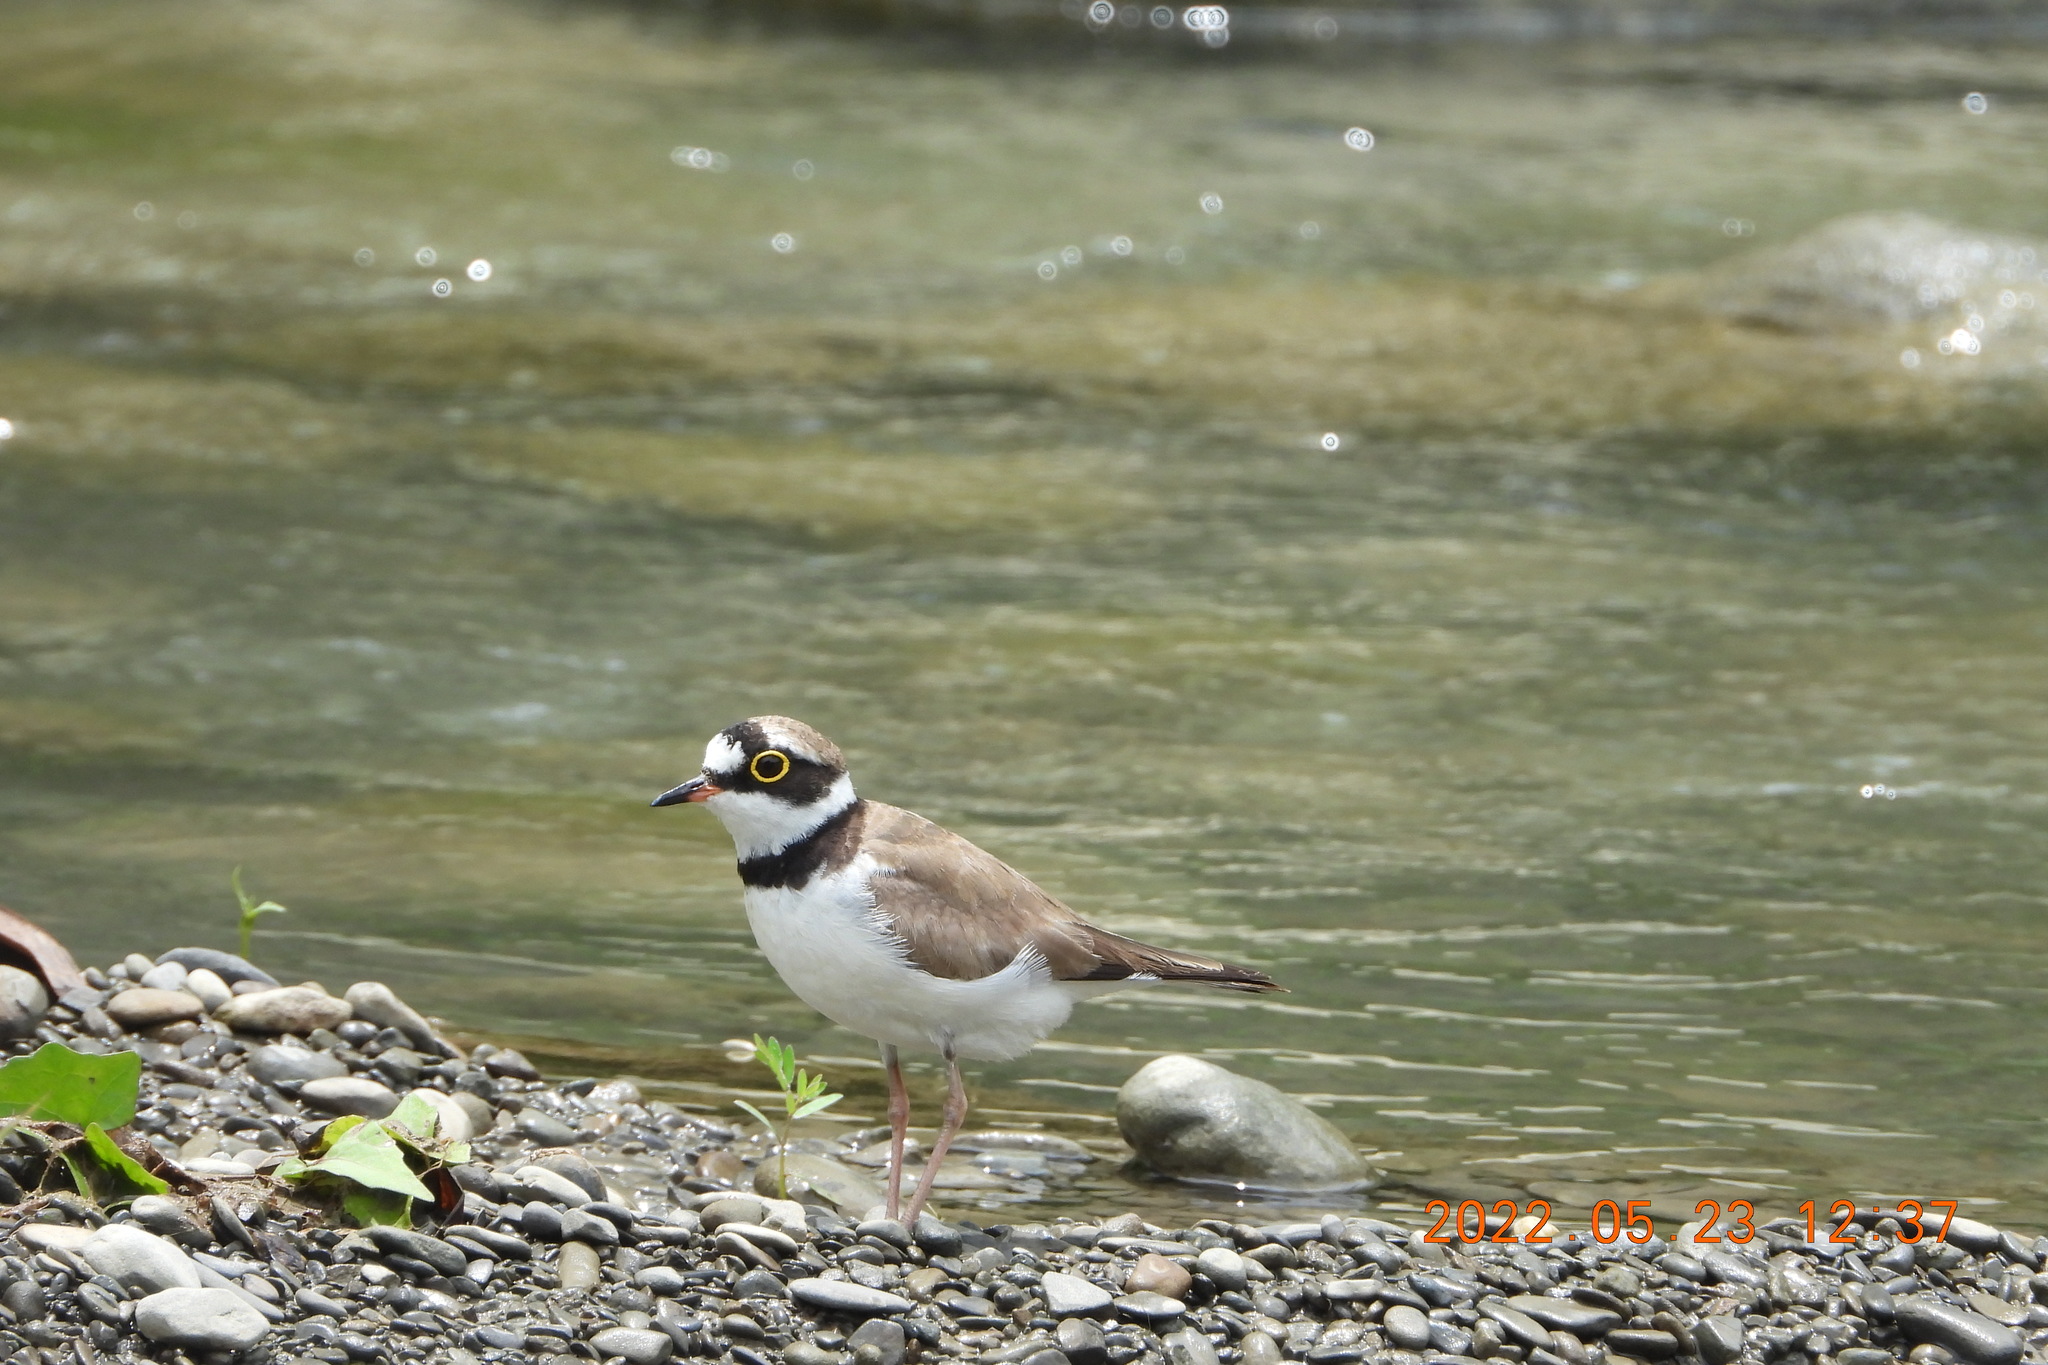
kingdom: Animalia
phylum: Chordata
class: Aves
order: Charadriiformes
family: Charadriidae
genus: Charadrius
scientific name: Charadrius dubius
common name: Little ringed plover
